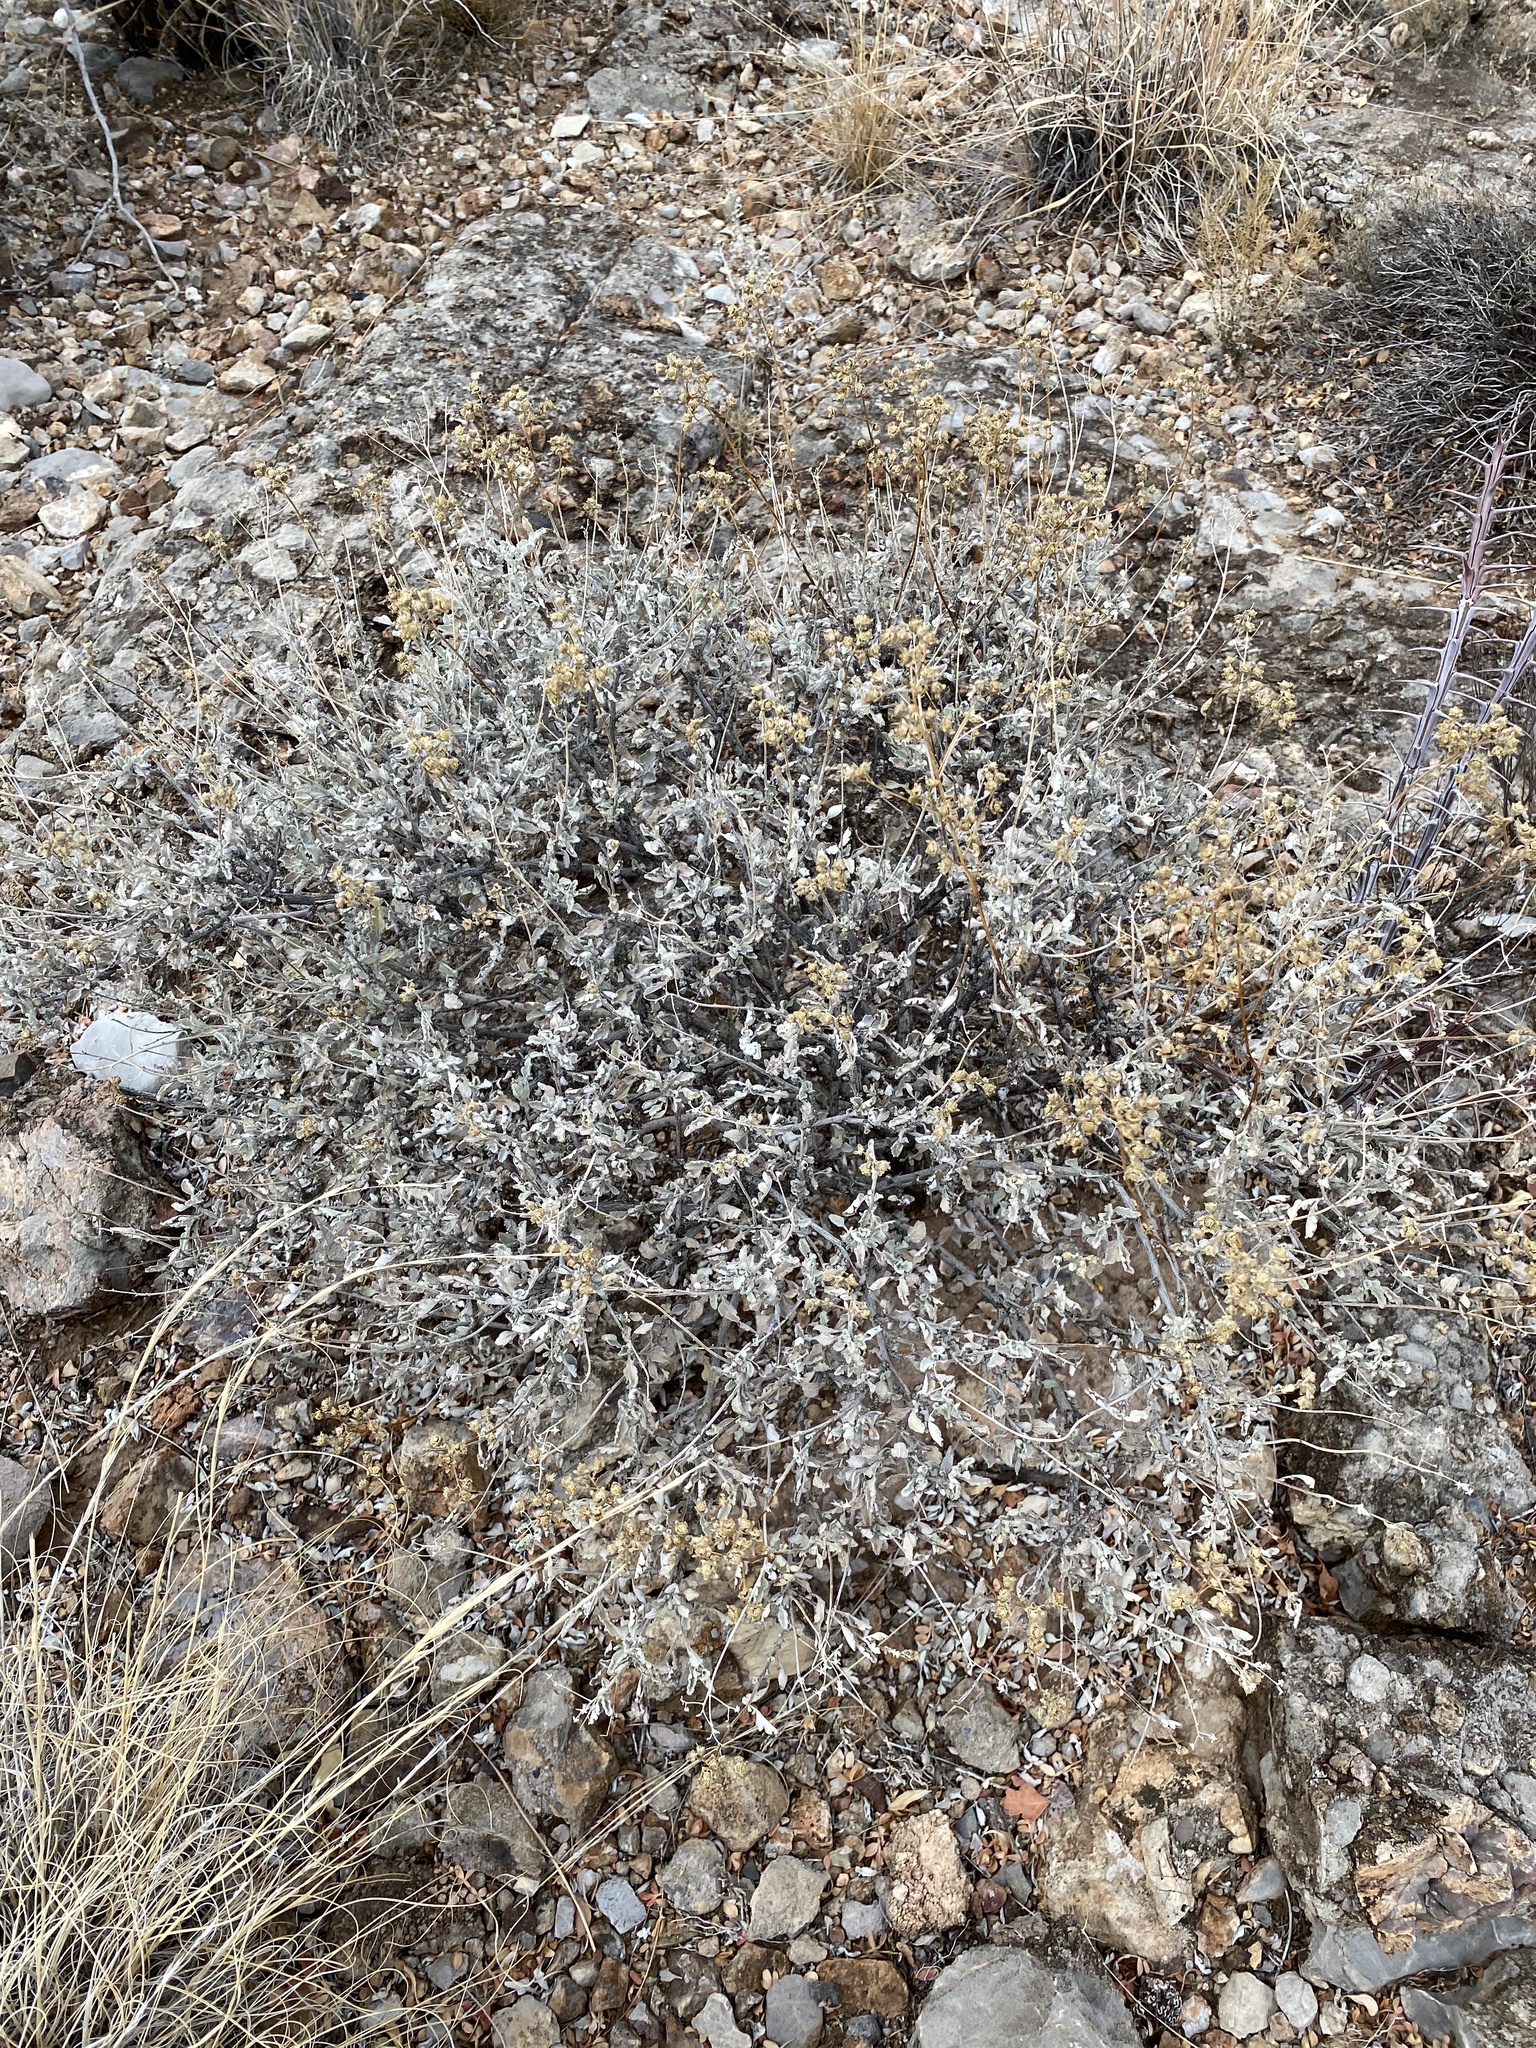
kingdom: Plantae
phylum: Tracheophyta
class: Magnoliopsida
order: Asterales
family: Asteraceae
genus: Parthenium
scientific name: Parthenium incanum
